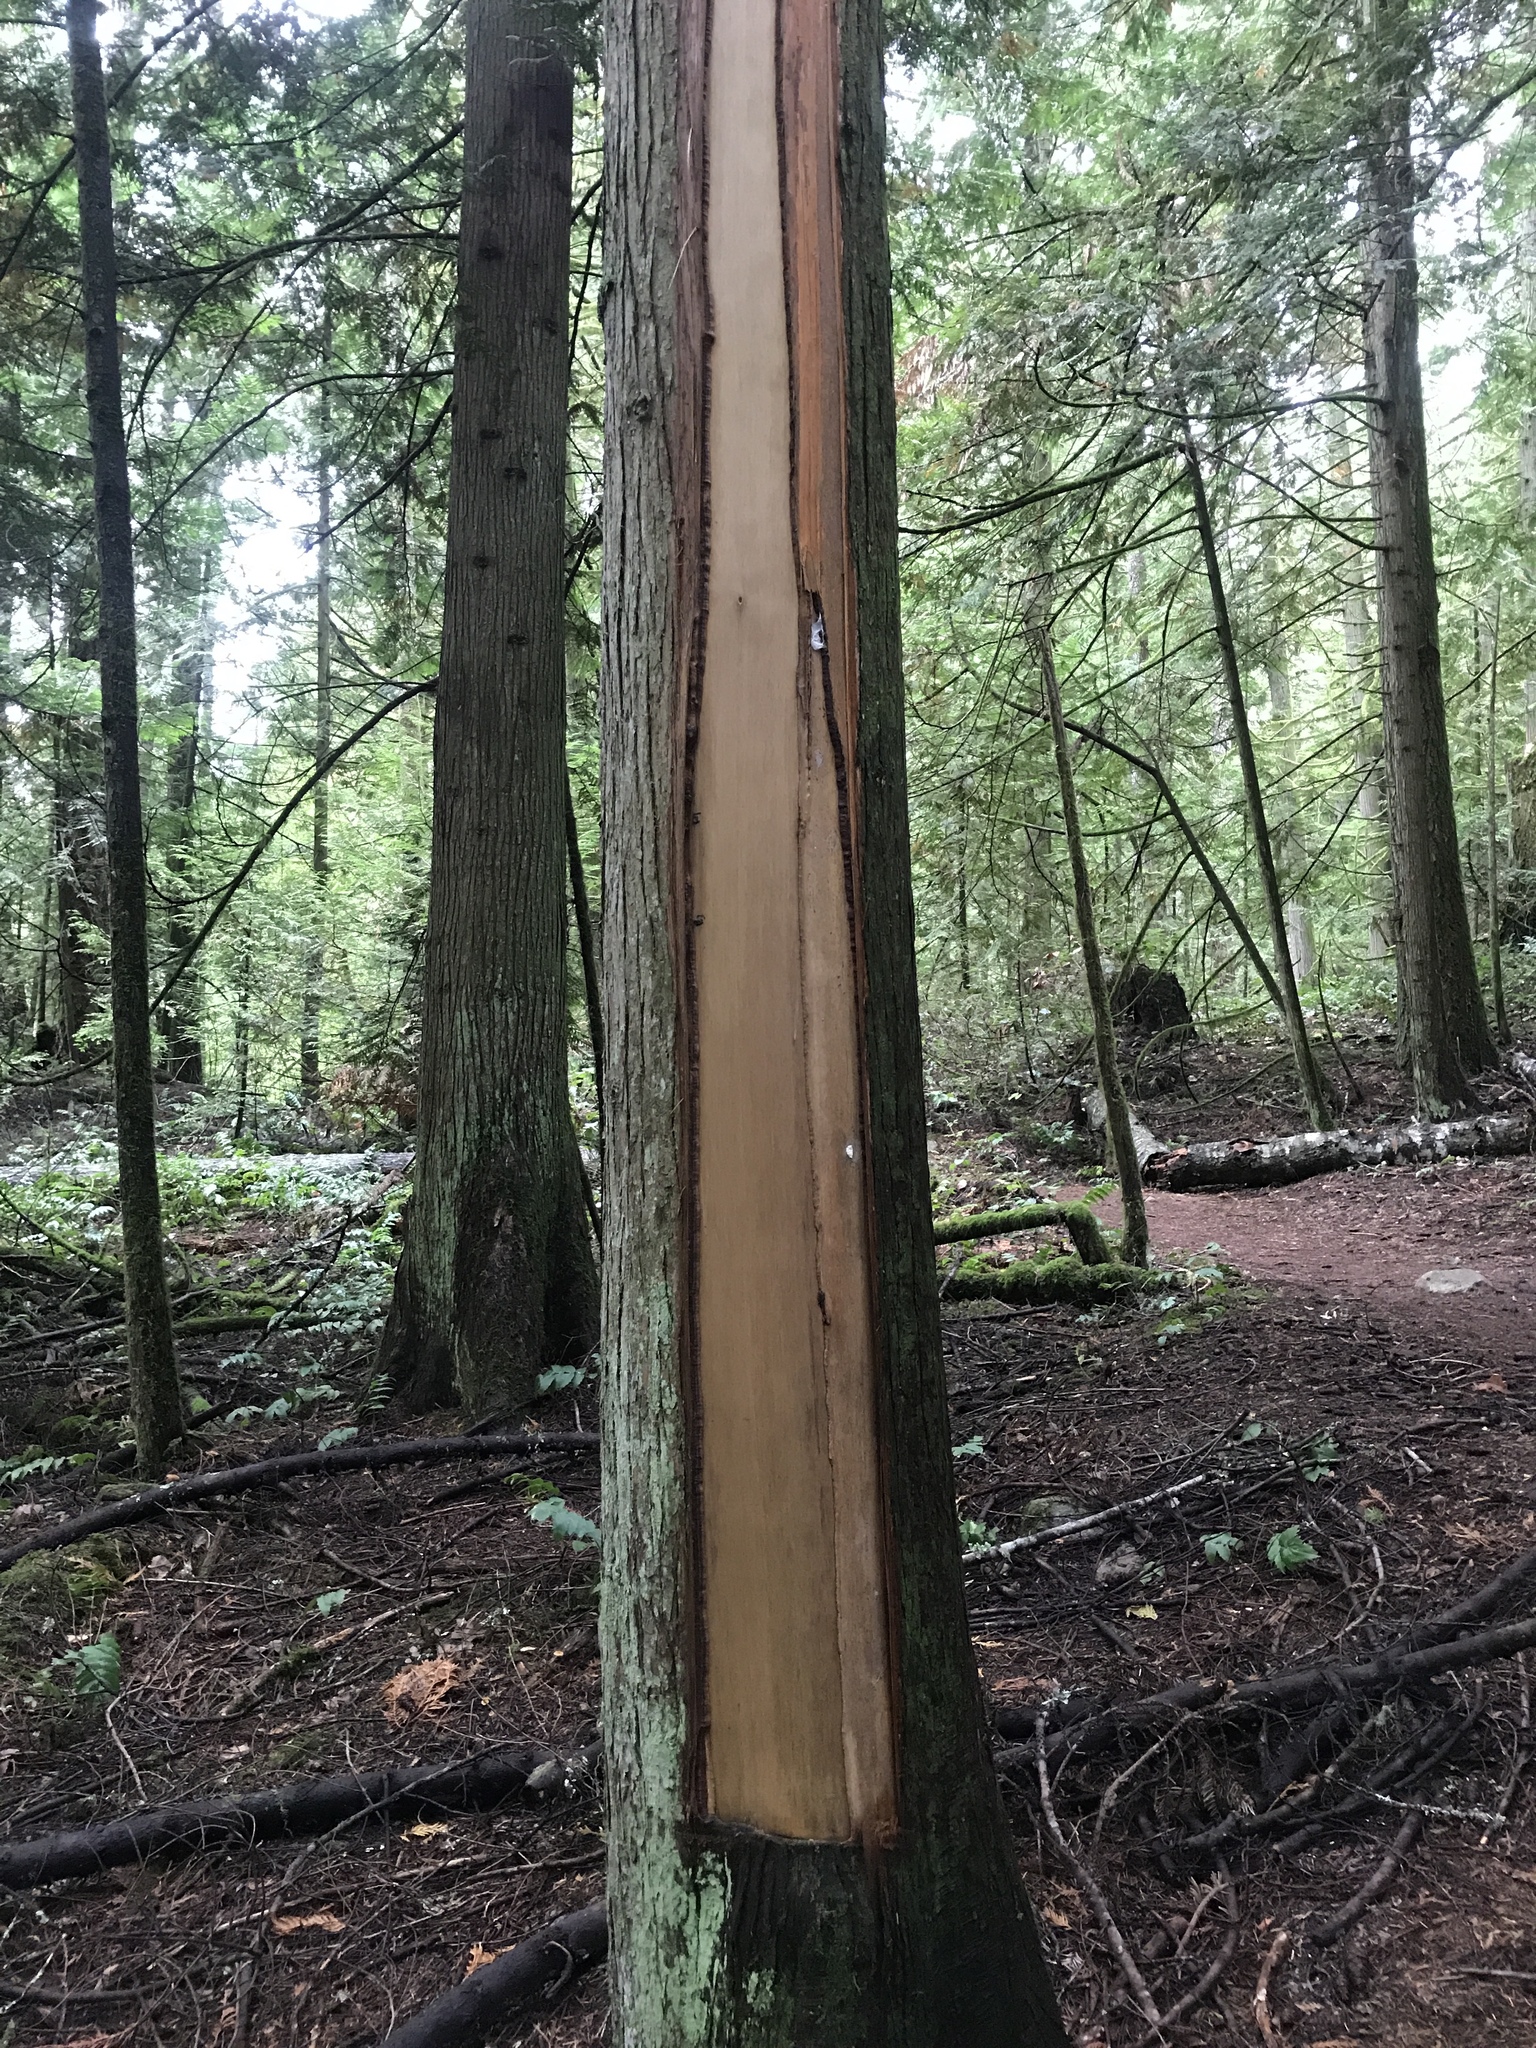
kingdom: Plantae
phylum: Tracheophyta
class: Pinopsida
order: Pinales
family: Cupressaceae
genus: Thuja
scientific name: Thuja plicata
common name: Western red-cedar
